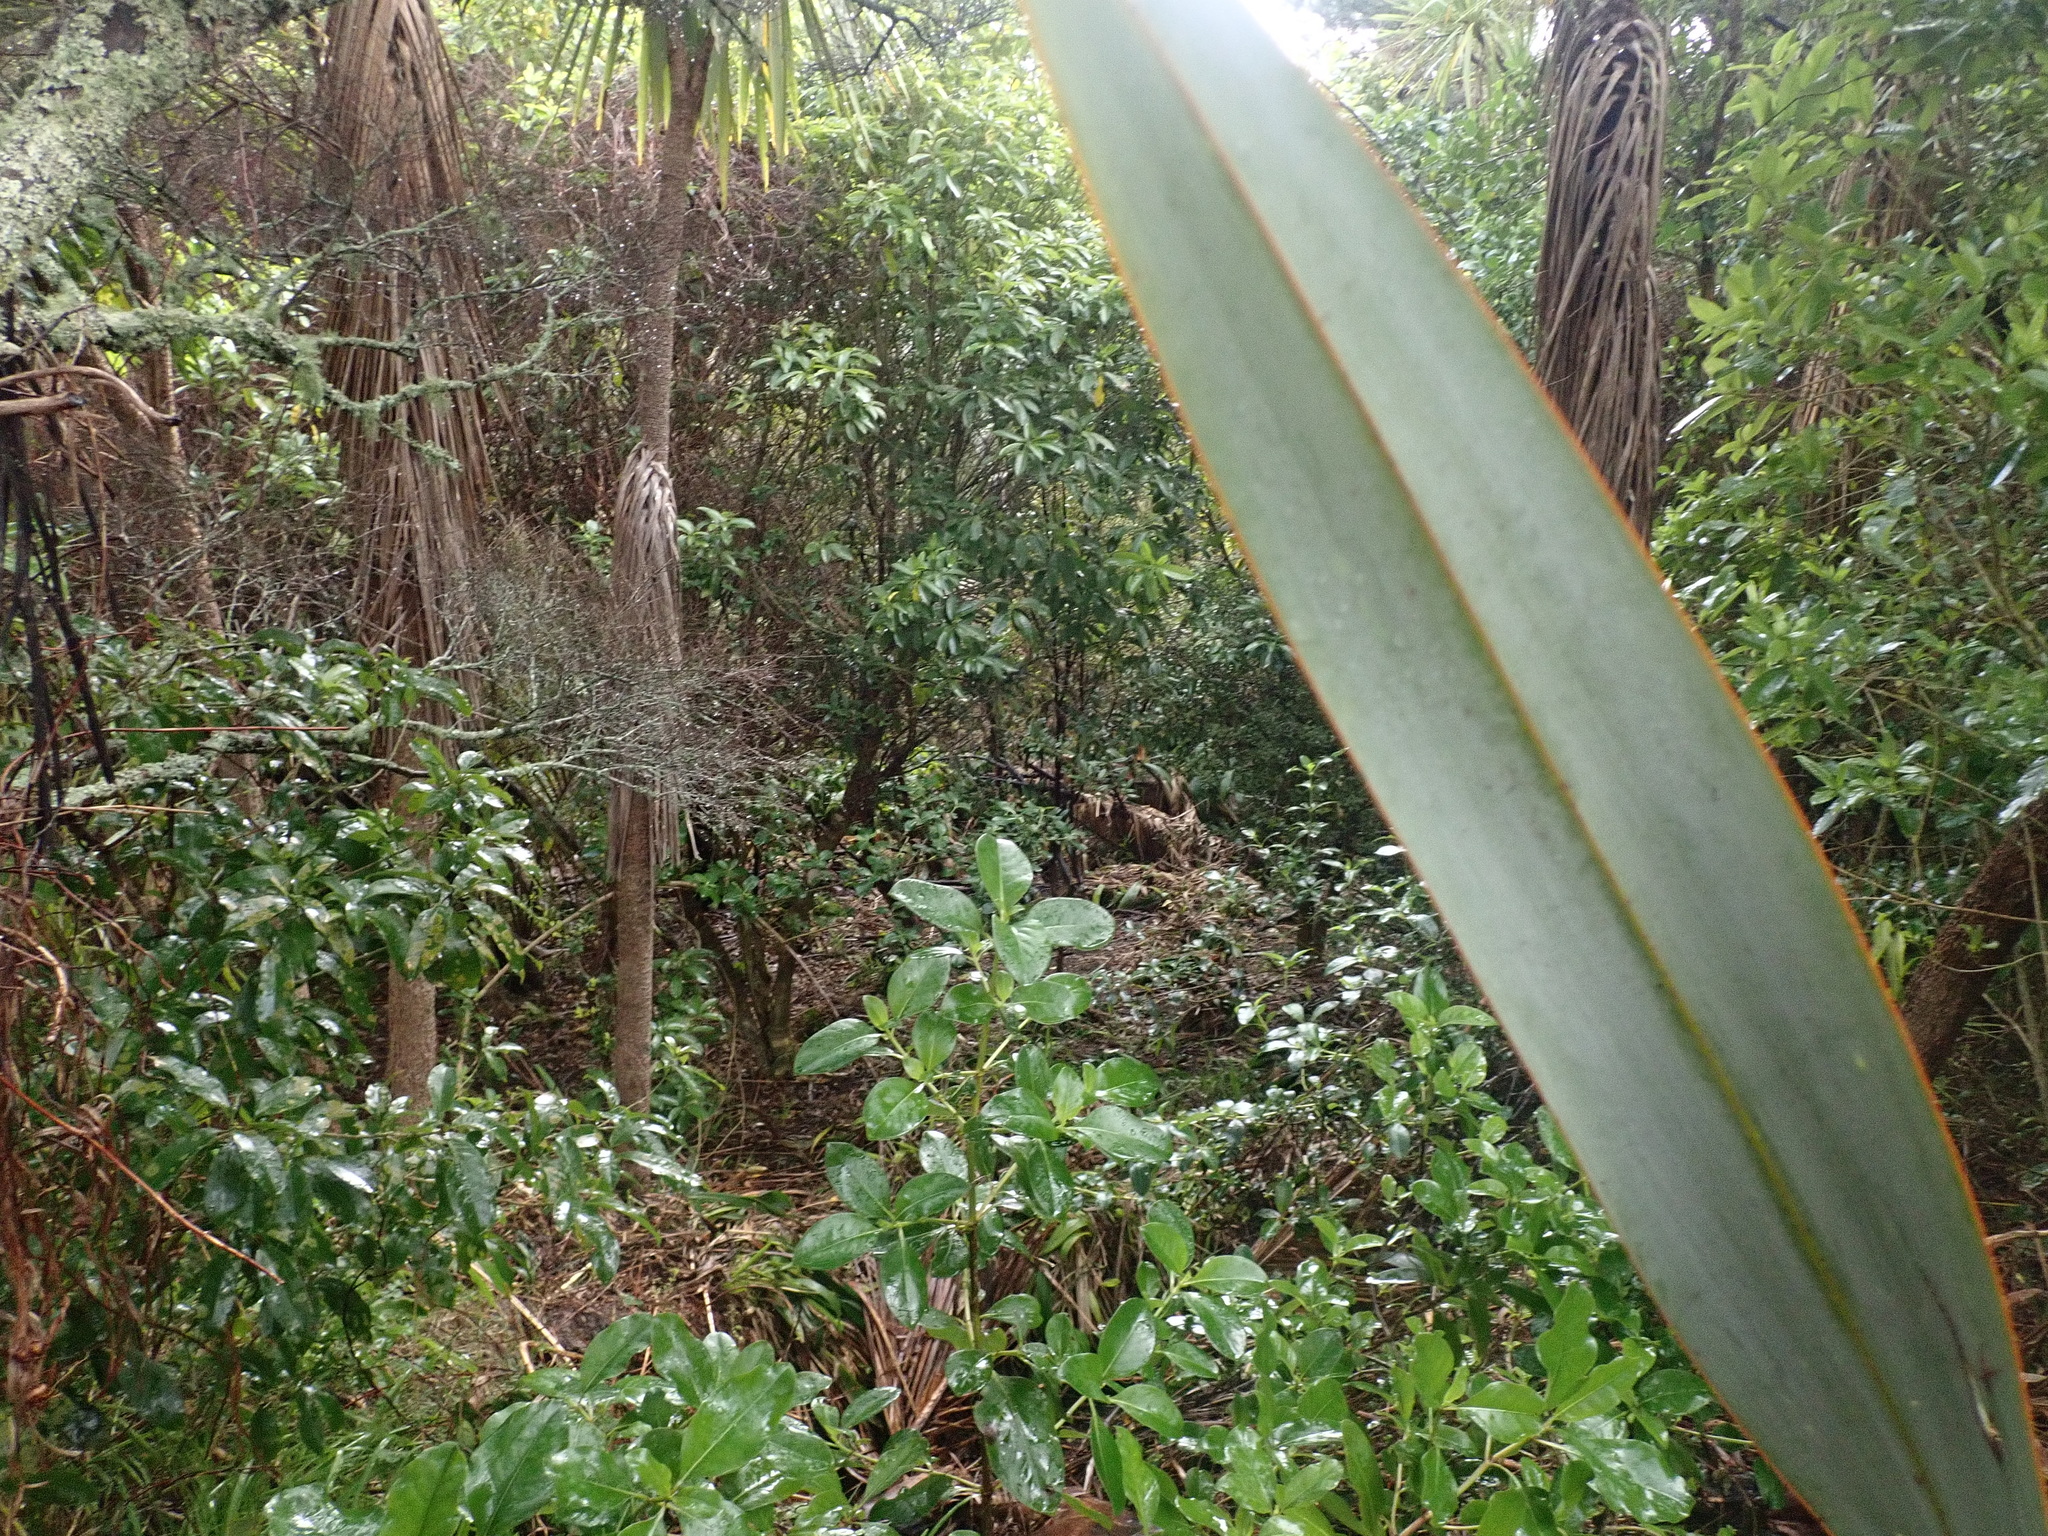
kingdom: Plantae
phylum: Tracheophyta
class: Liliopsida
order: Asparagales
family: Asparagaceae
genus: Cordyline
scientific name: Cordyline australis
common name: Cabbage-palm
